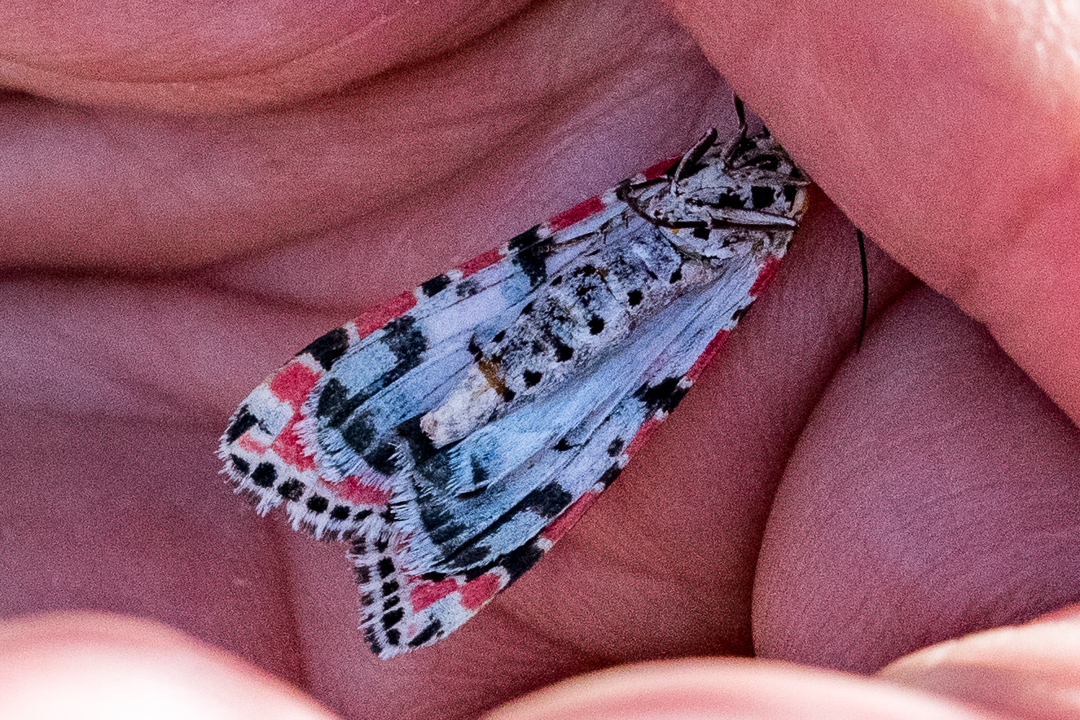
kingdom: Animalia
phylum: Arthropoda
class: Insecta
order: Lepidoptera
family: Erebidae
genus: Utetheisa
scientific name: Utetheisa pulchella
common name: Crimson speckled
